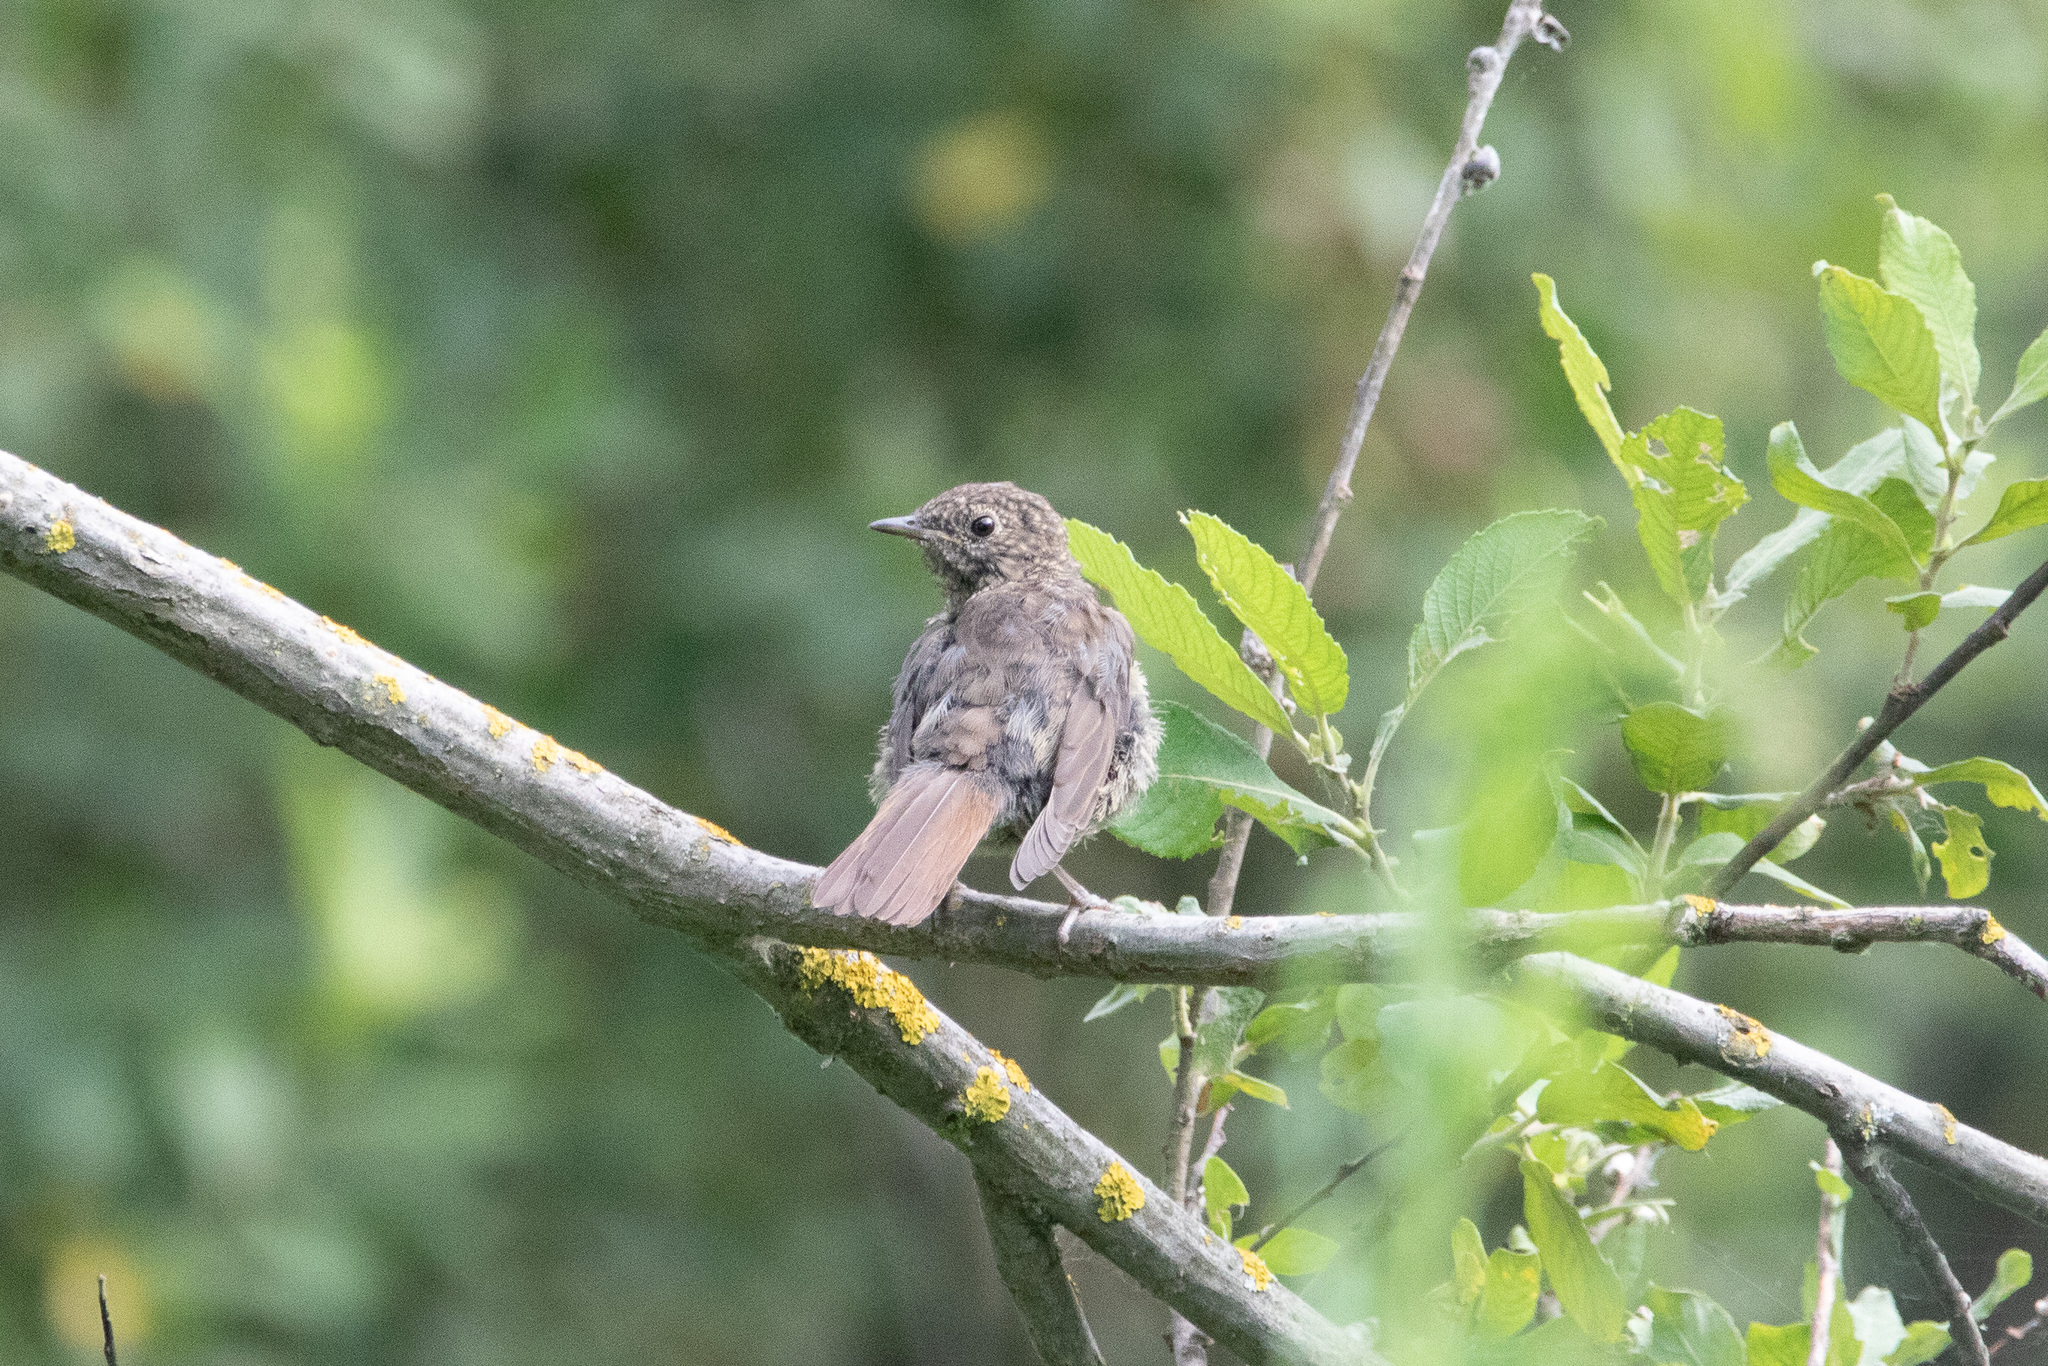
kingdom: Animalia
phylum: Chordata
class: Aves
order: Passeriformes
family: Muscicapidae
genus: Luscinia
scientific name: Luscinia svecica
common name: Bluethroat
